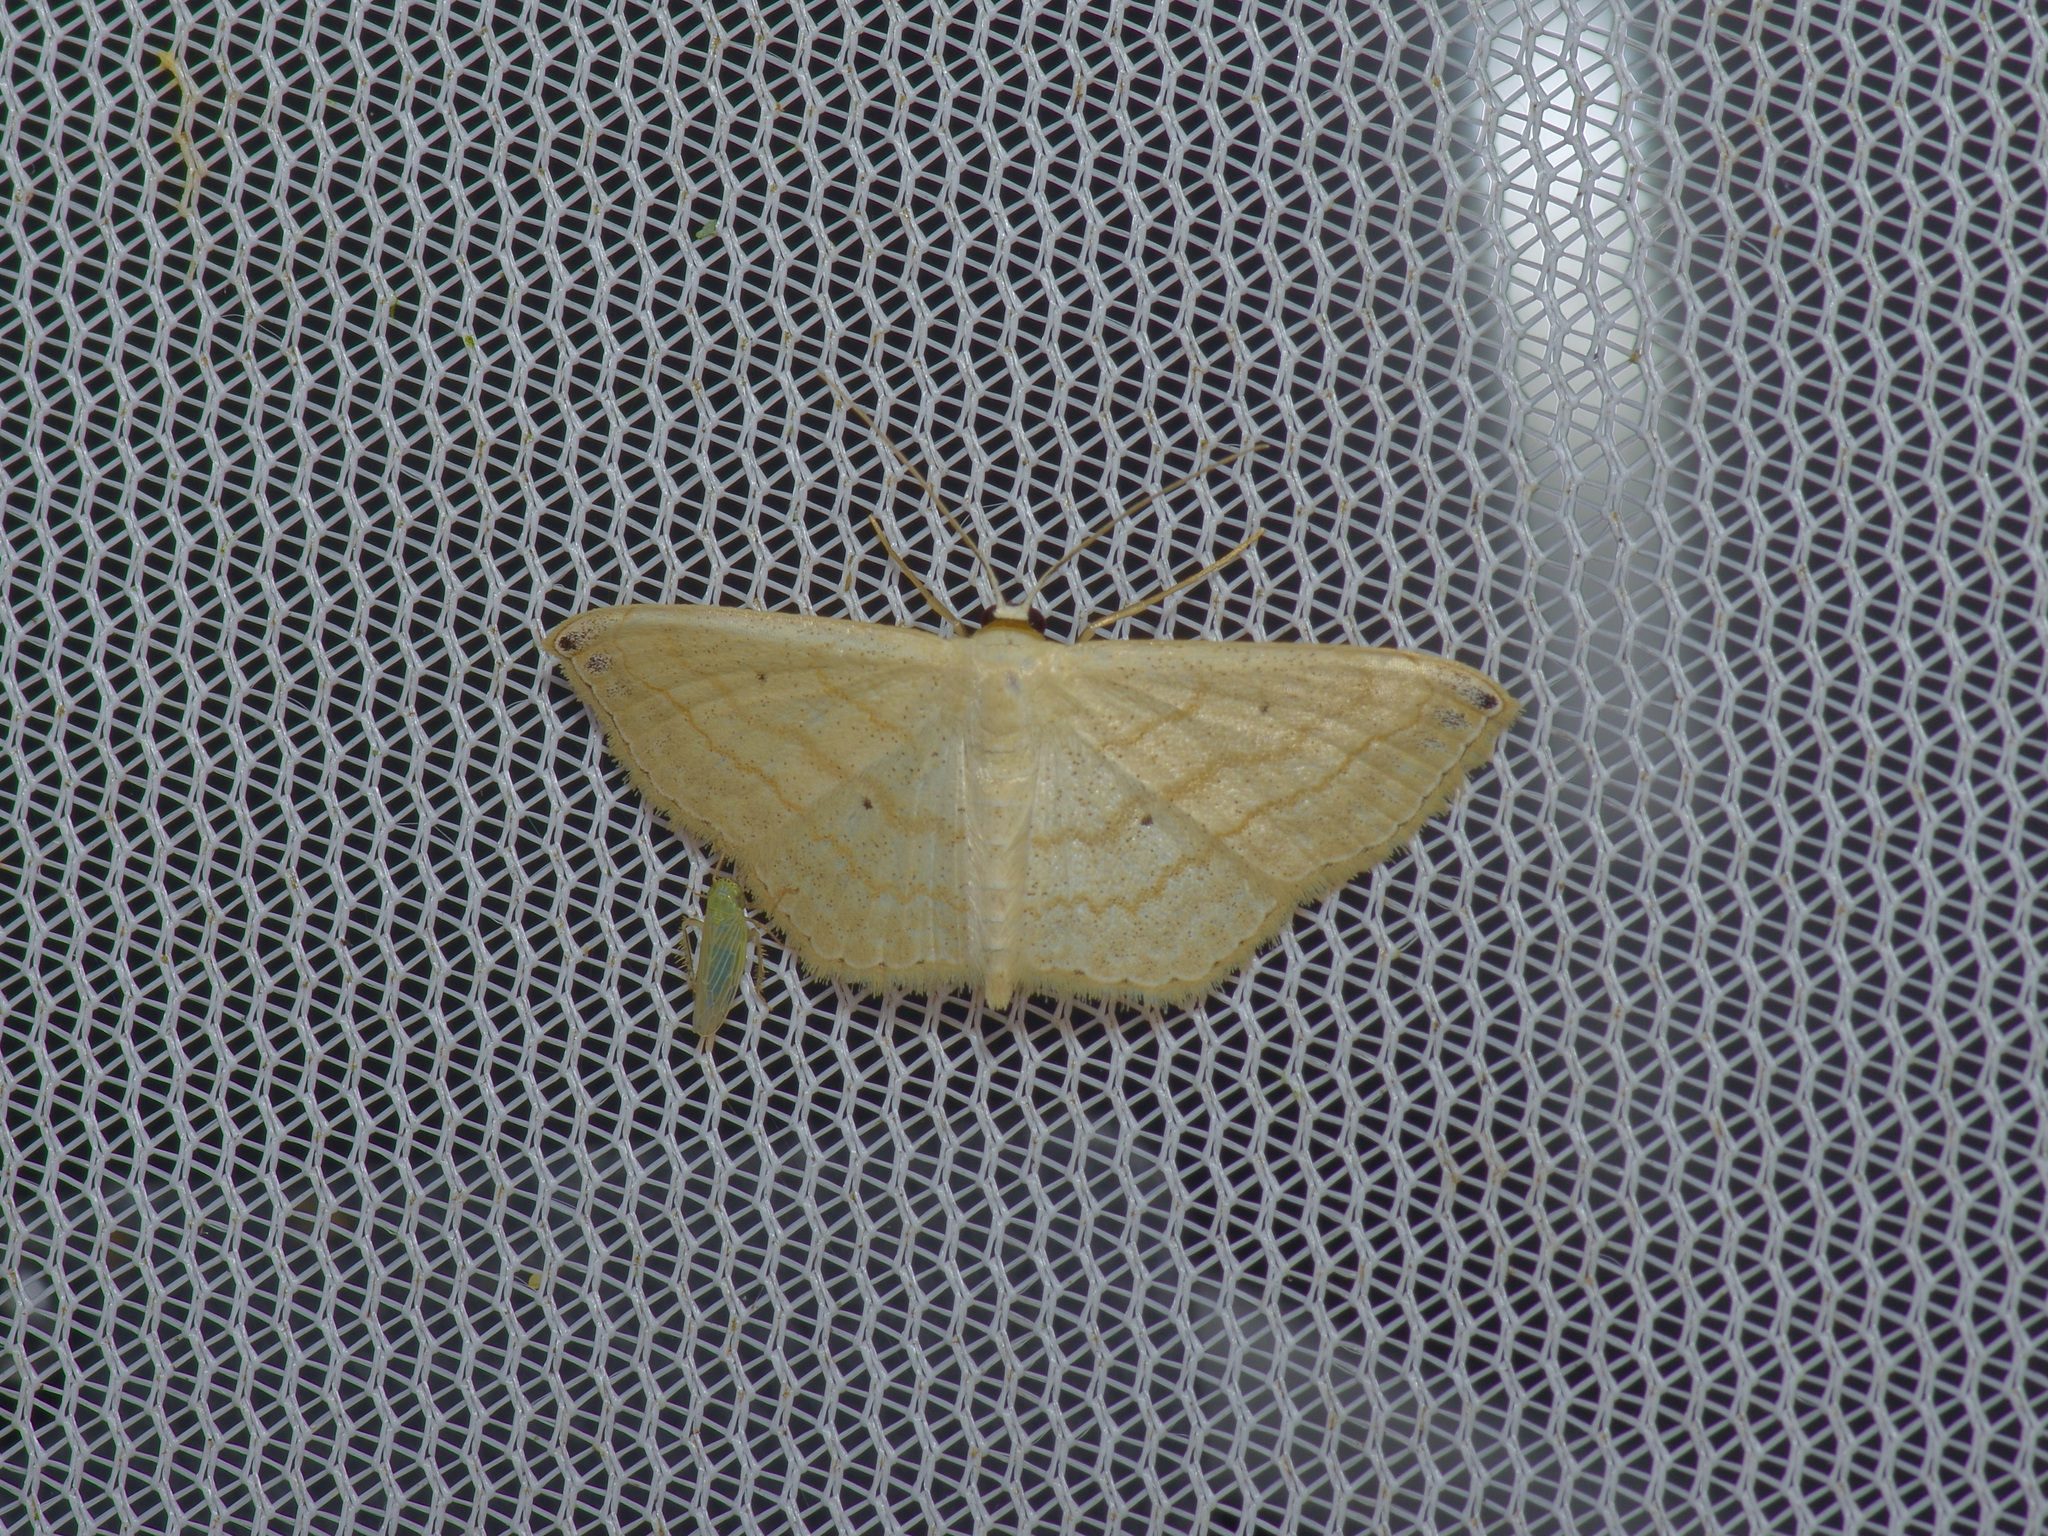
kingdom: Animalia
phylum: Arthropoda
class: Insecta
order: Lepidoptera
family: Geometridae
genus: Scopula
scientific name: Scopula umbilicata
